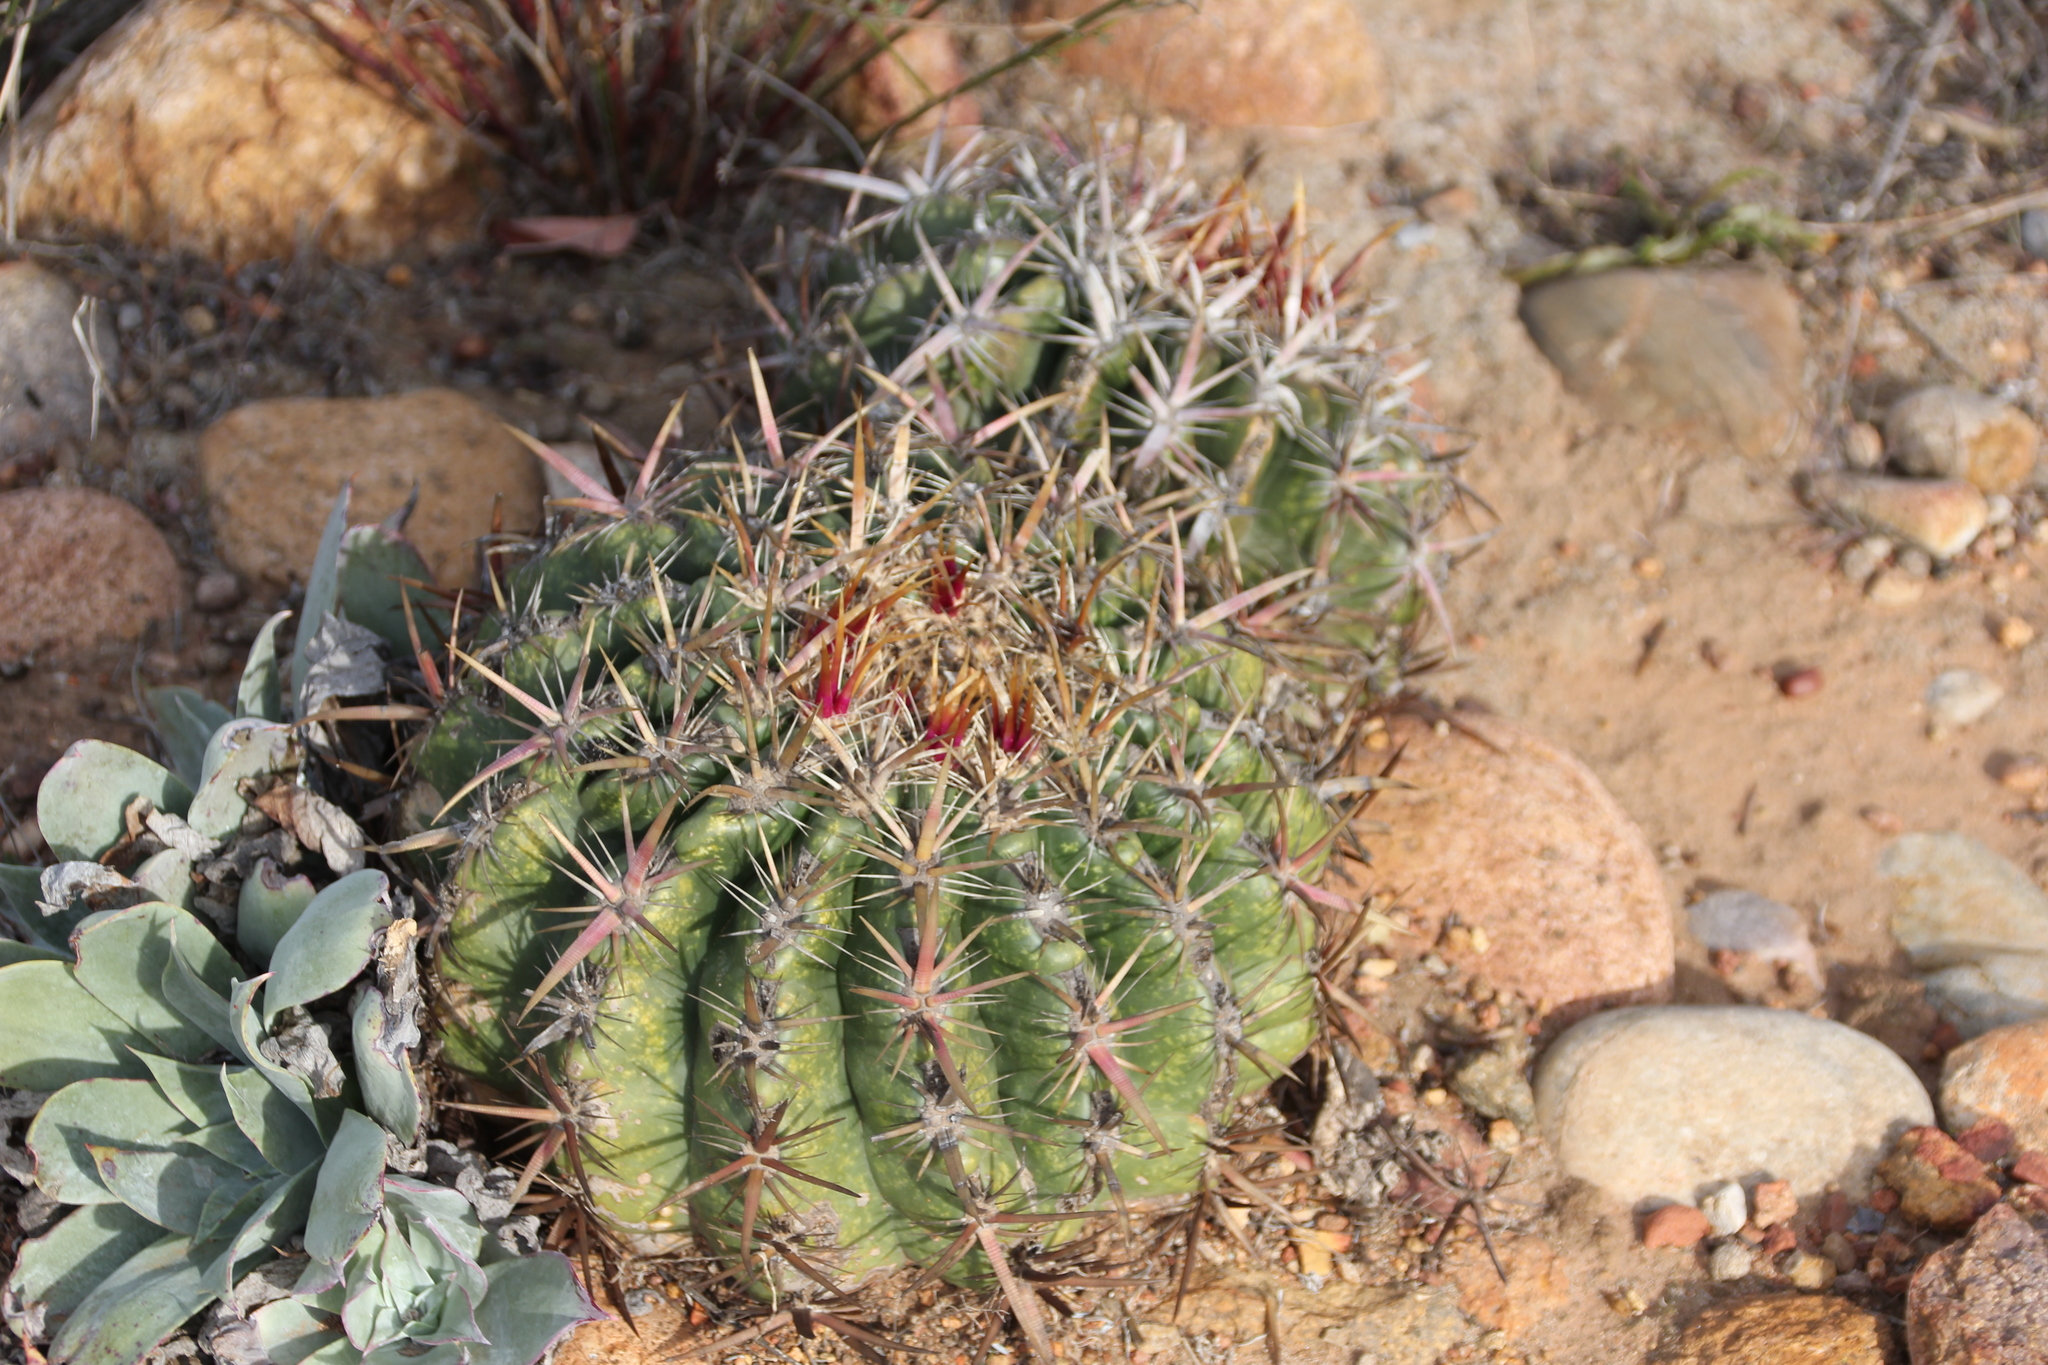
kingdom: Plantae
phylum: Tracheophyta
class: Magnoliopsida
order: Caryophyllales
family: Cactaceae
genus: Ferocactus
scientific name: Ferocactus viridescens
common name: San diego barrel cactus
